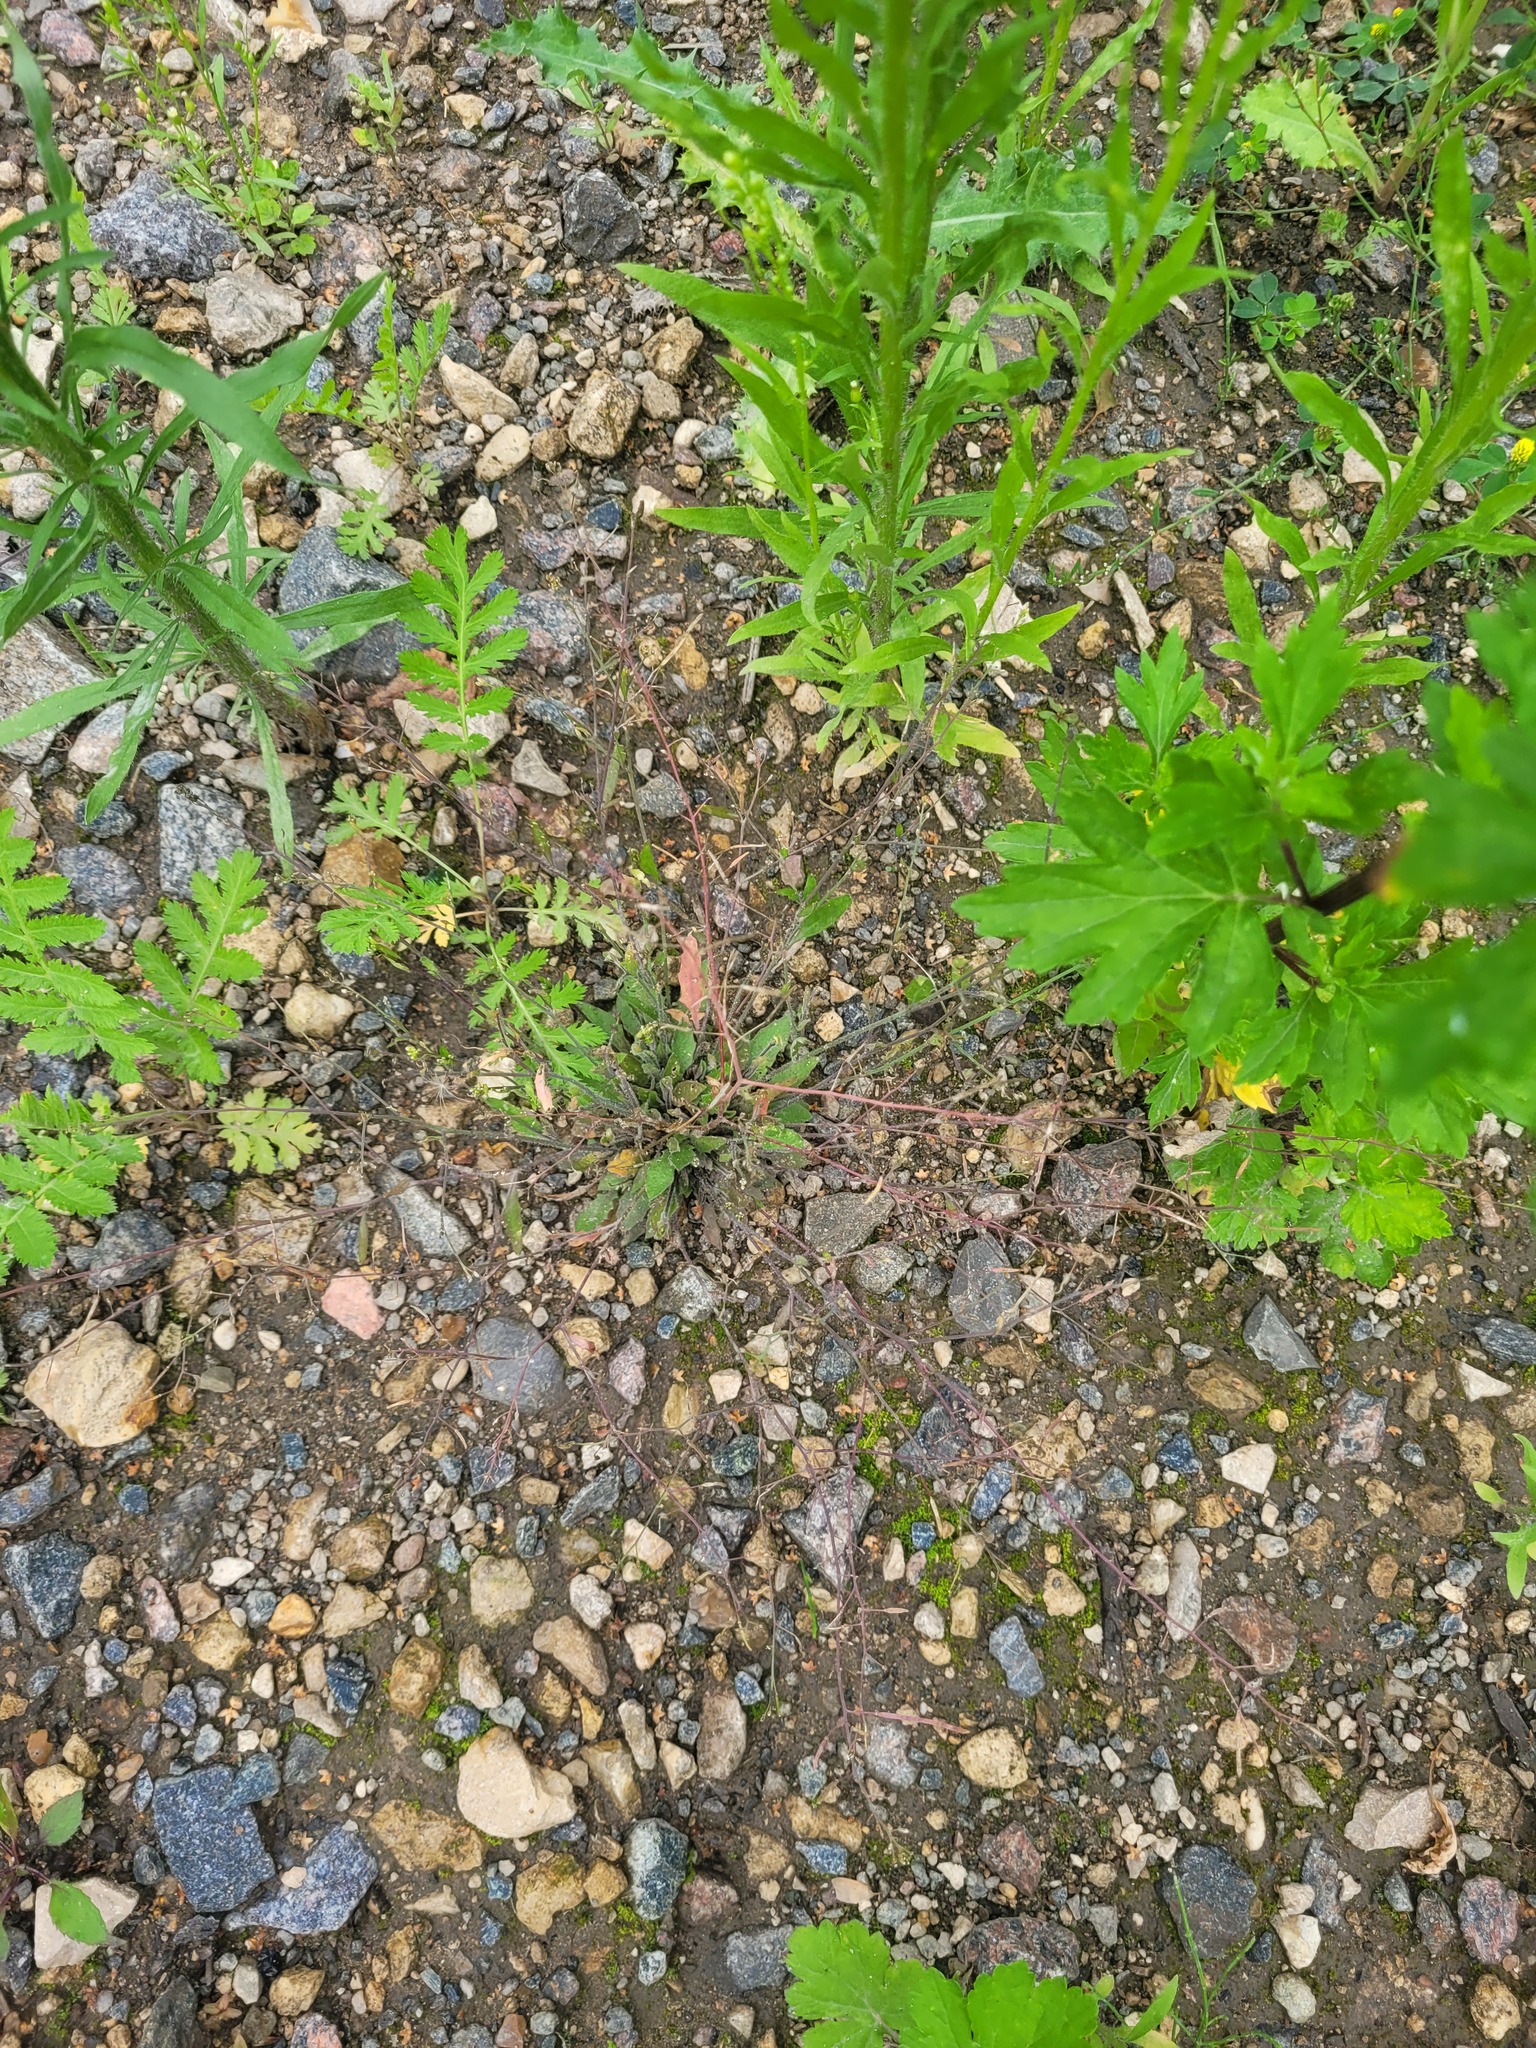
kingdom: Plantae
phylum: Tracheophyta
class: Magnoliopsida
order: Brassicales
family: Brassicaceae
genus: Arabidopsis
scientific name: Arabidopsis arenosa
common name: Sand rock-cress
